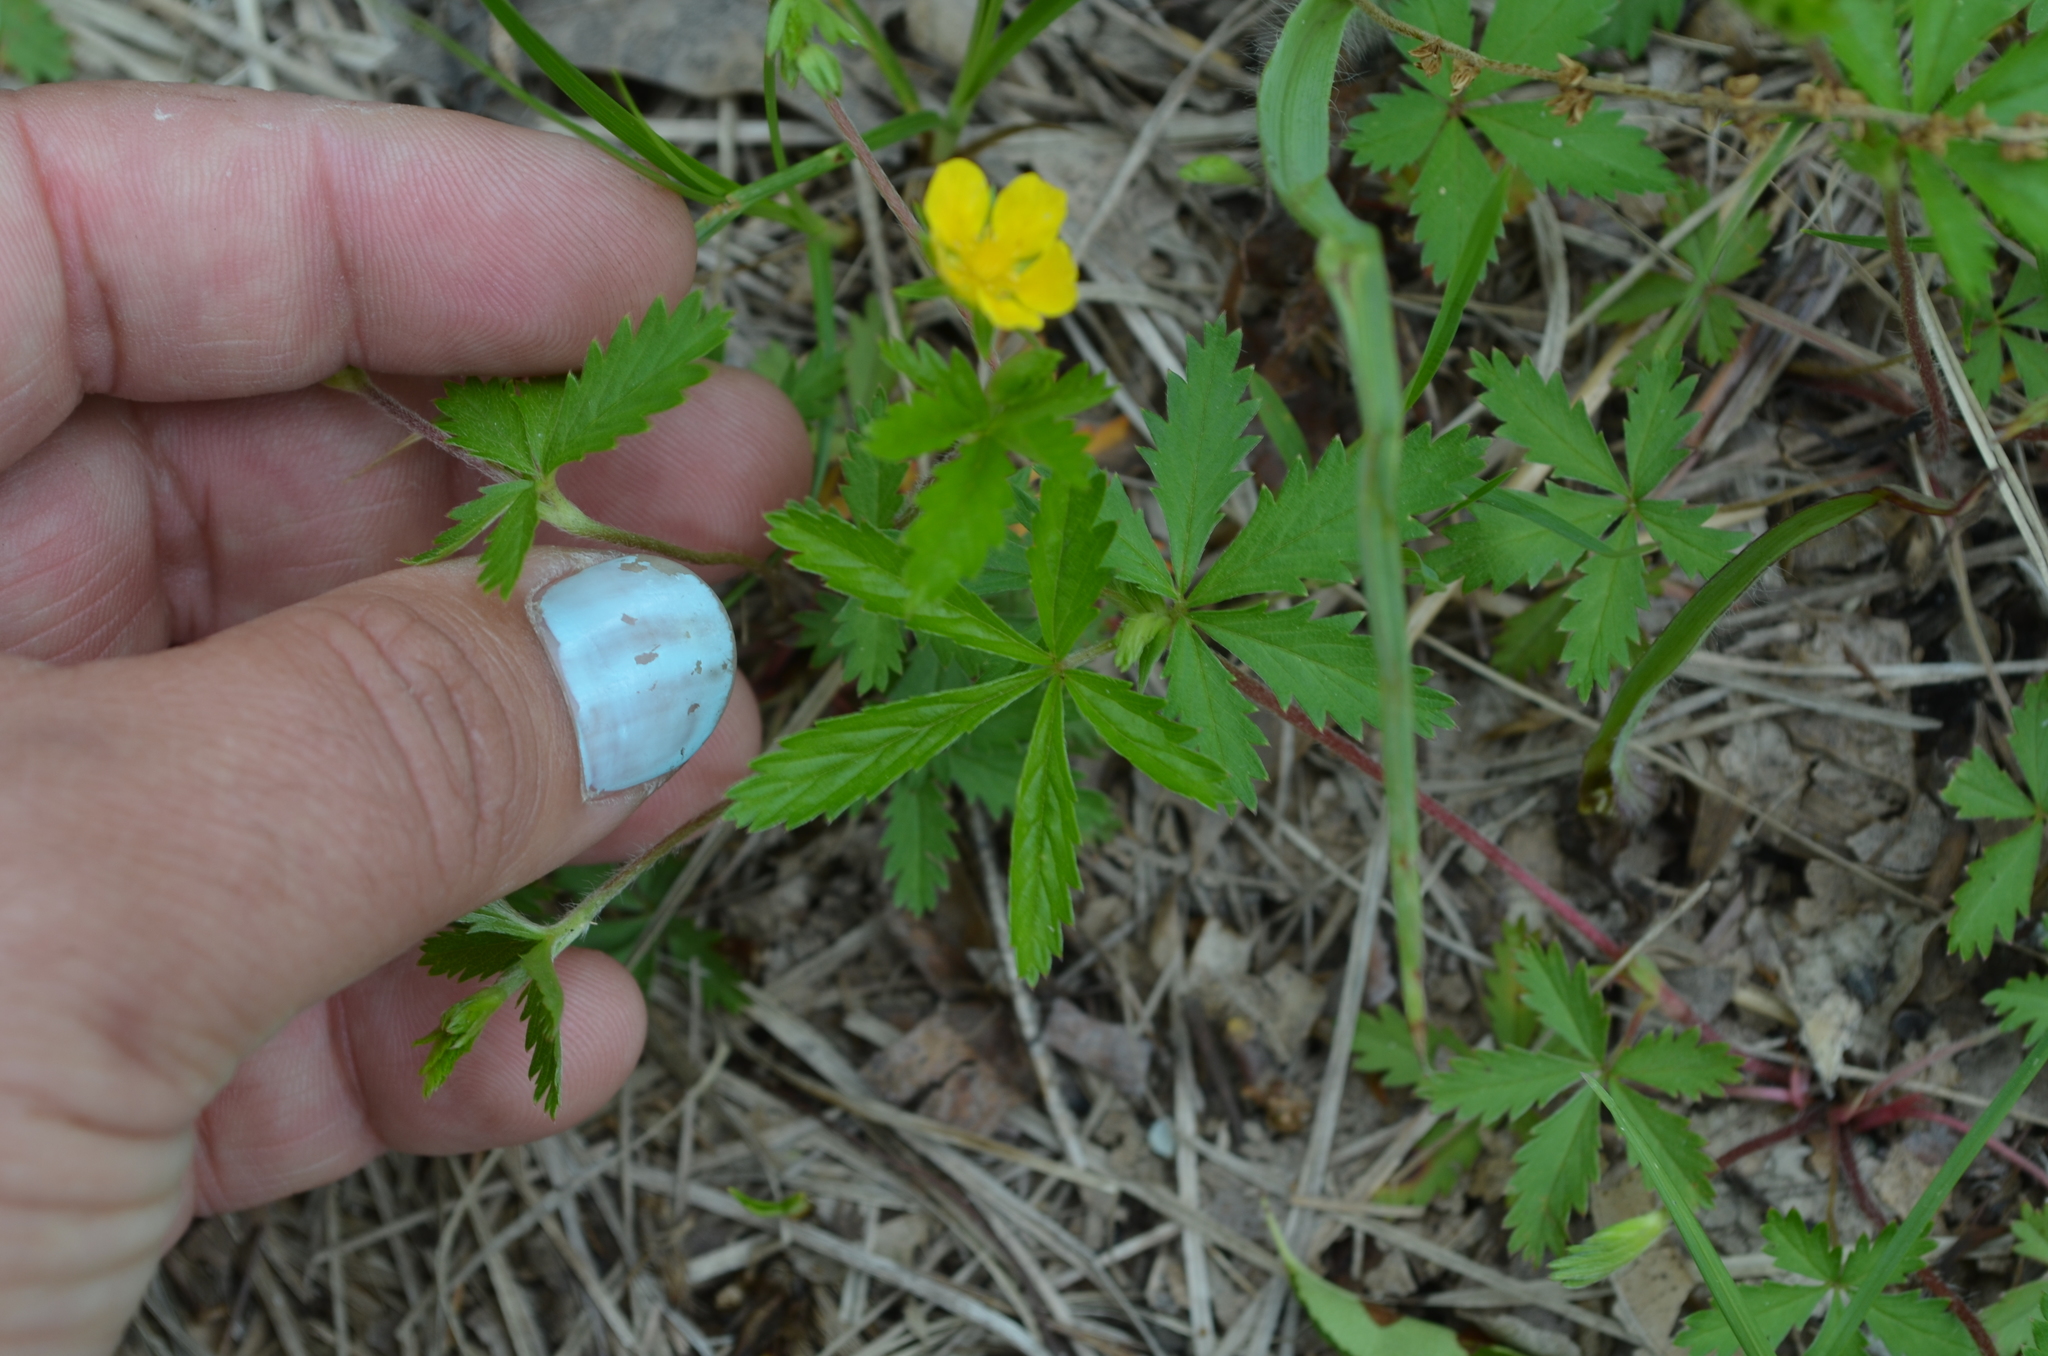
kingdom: Plantae
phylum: Tracheophyta
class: Magnoliopsida
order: Rosales
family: Rosaceae
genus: Potentilla
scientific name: Potentilla simplex
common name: Old field cinquefoil
